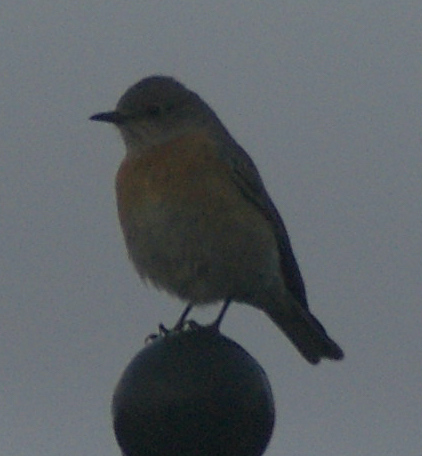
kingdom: Animalia
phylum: Chordata
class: Aves
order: Passeriformes
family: Turdidae
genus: Sialia
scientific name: Sialia mexicana
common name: Western bluebird
